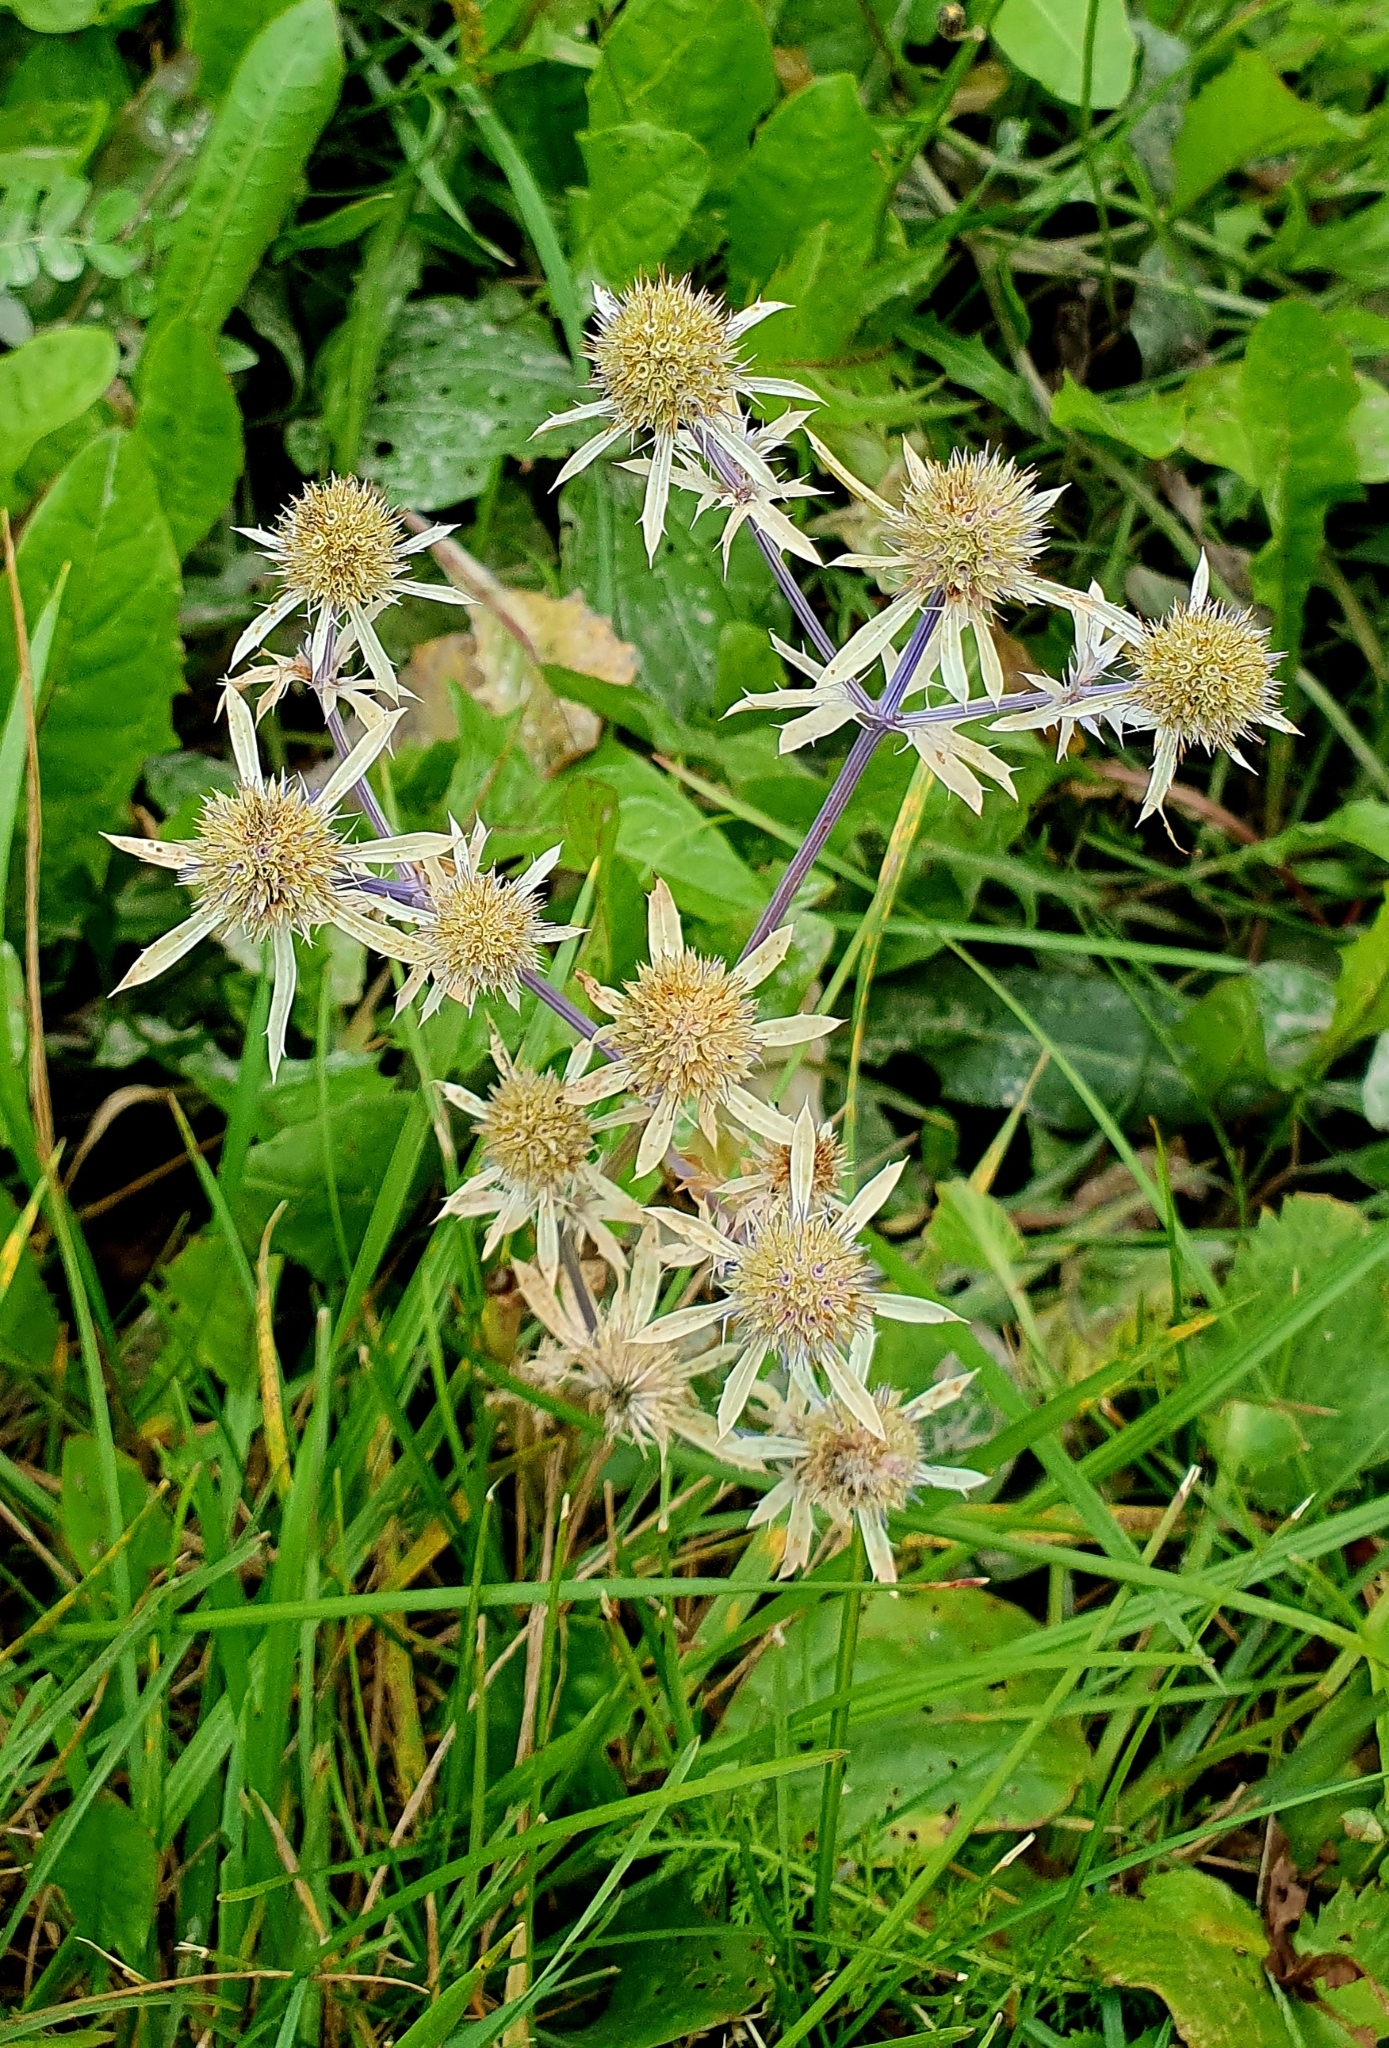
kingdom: Plantae
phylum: Tracheophyta
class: Magnoliopsida
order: Apiales
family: Apiaceae
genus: Eryngium
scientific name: Eryngium planum
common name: Blue eryngo
